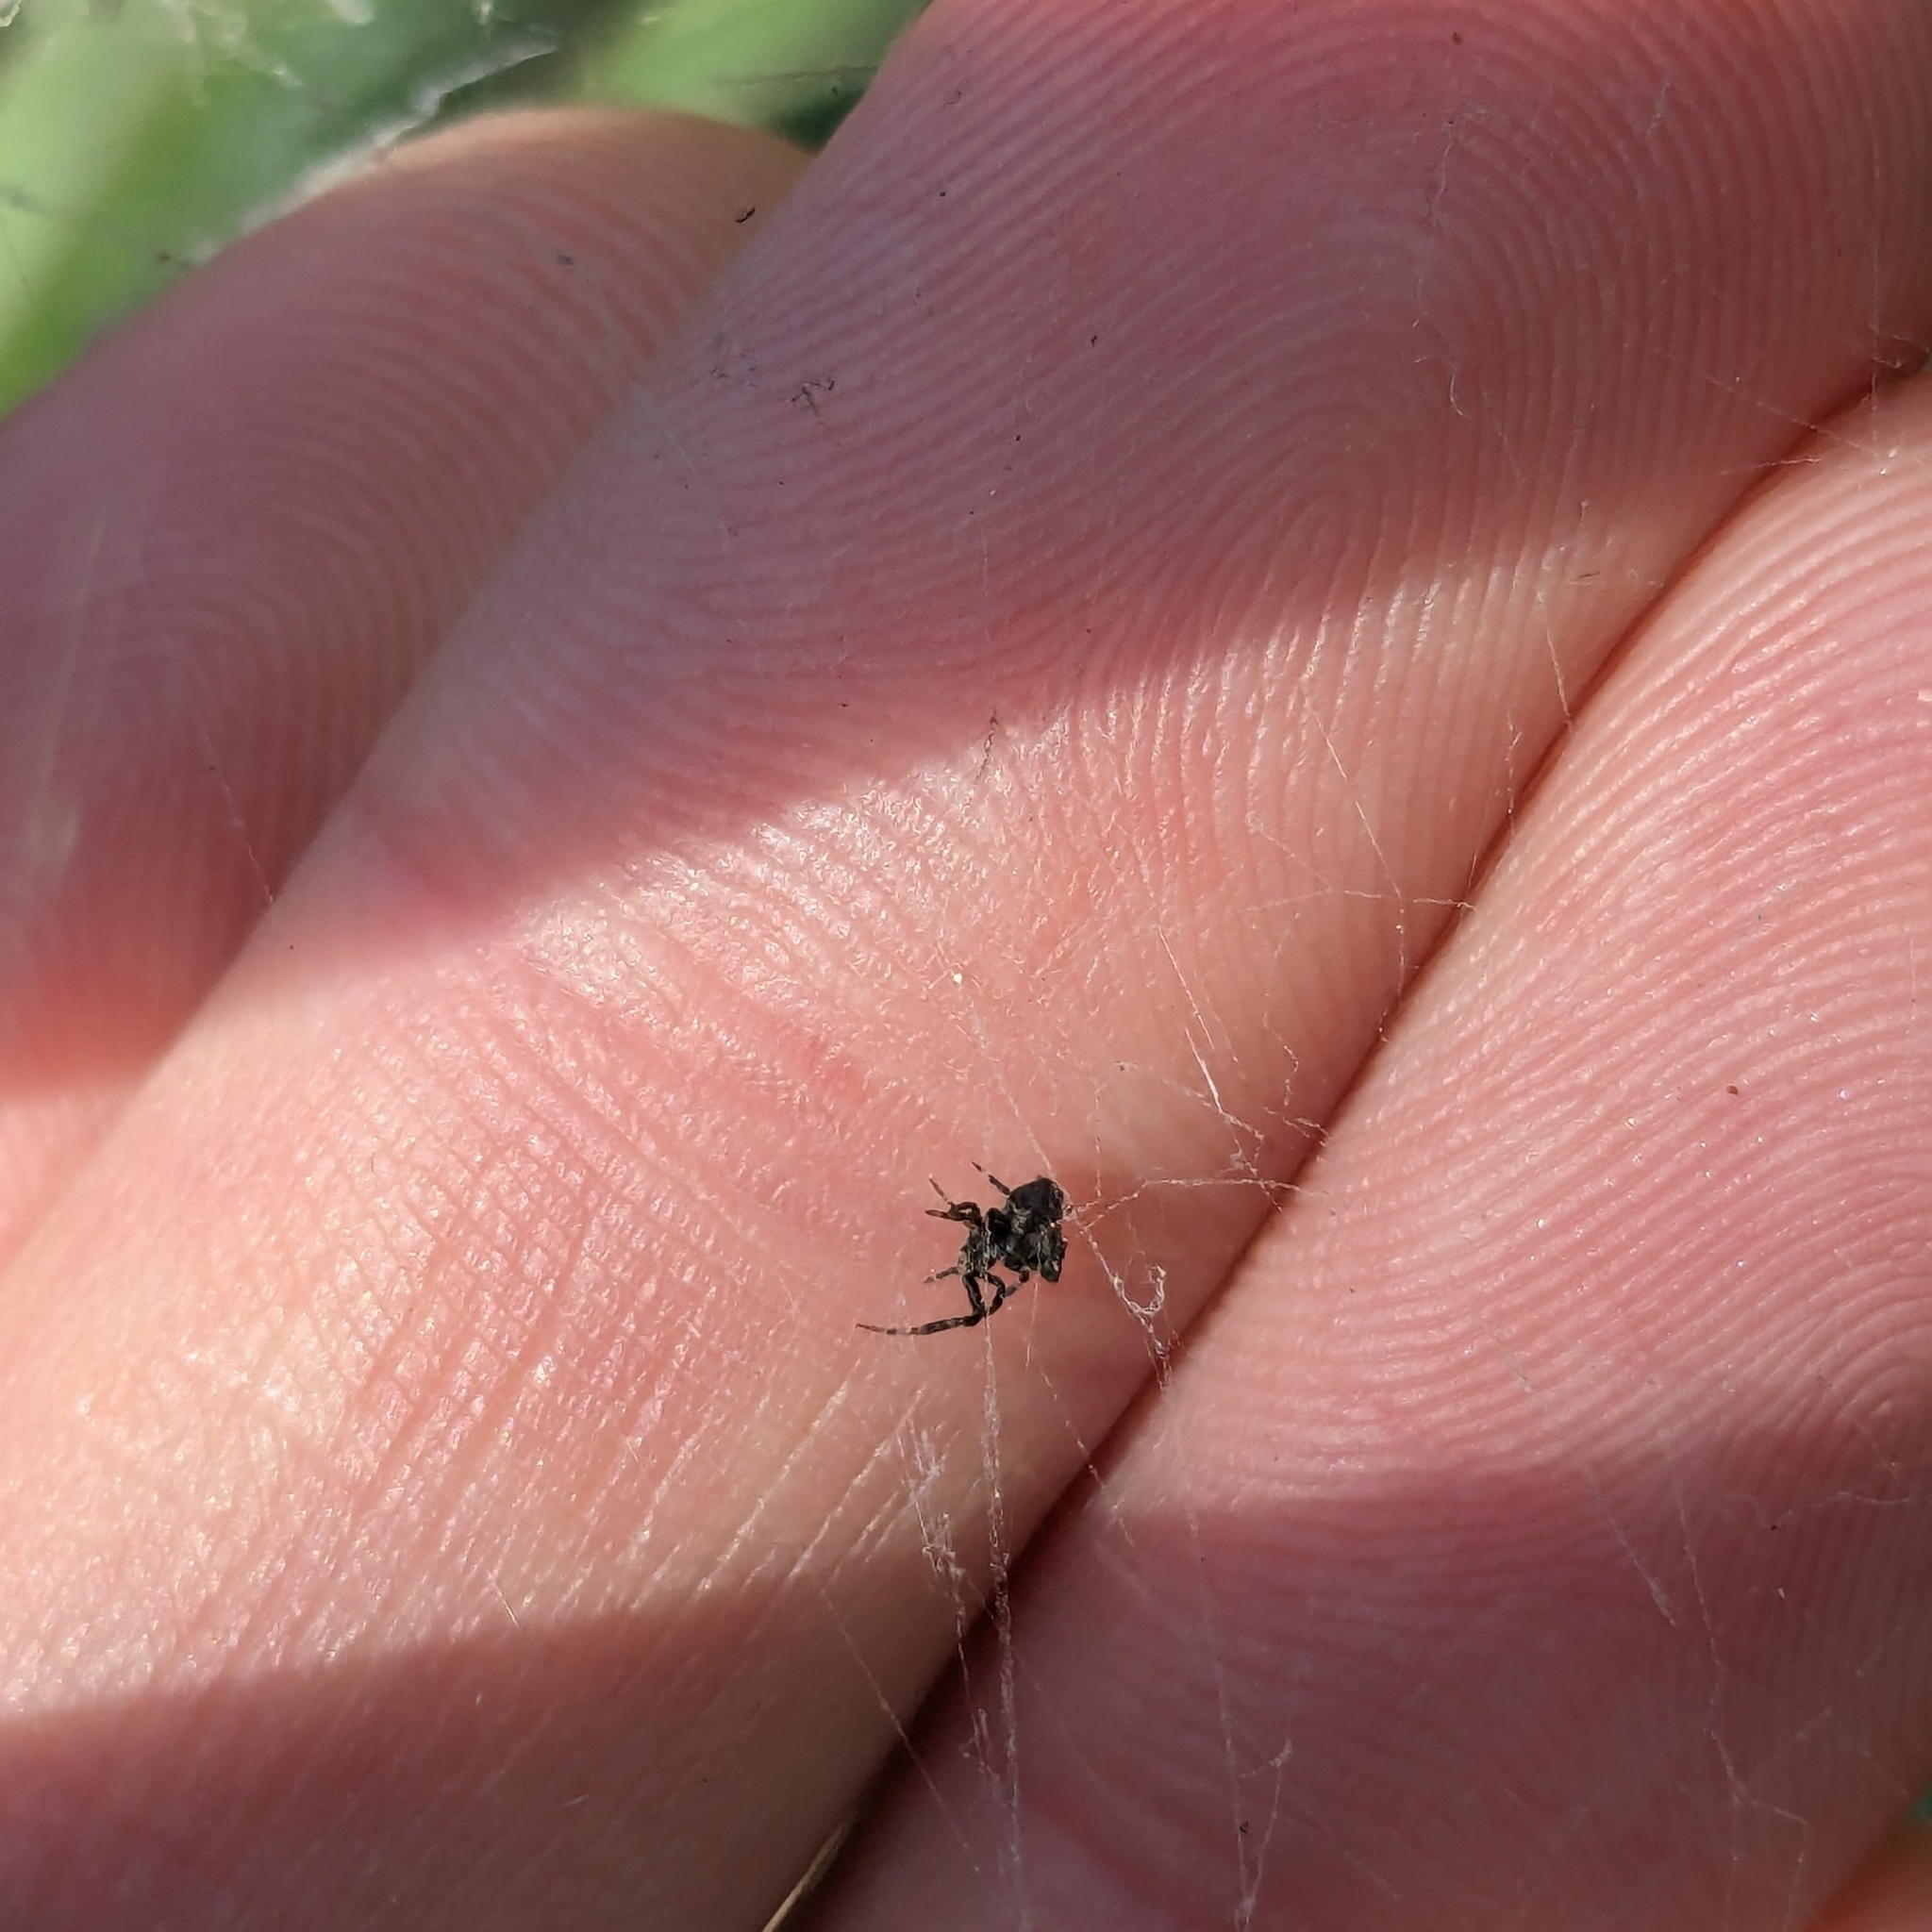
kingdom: Animalia
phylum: Arthropoda
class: Arachnida
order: Araneae
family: Uloboridae
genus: Philoponella
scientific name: Philoponella congregabilis
